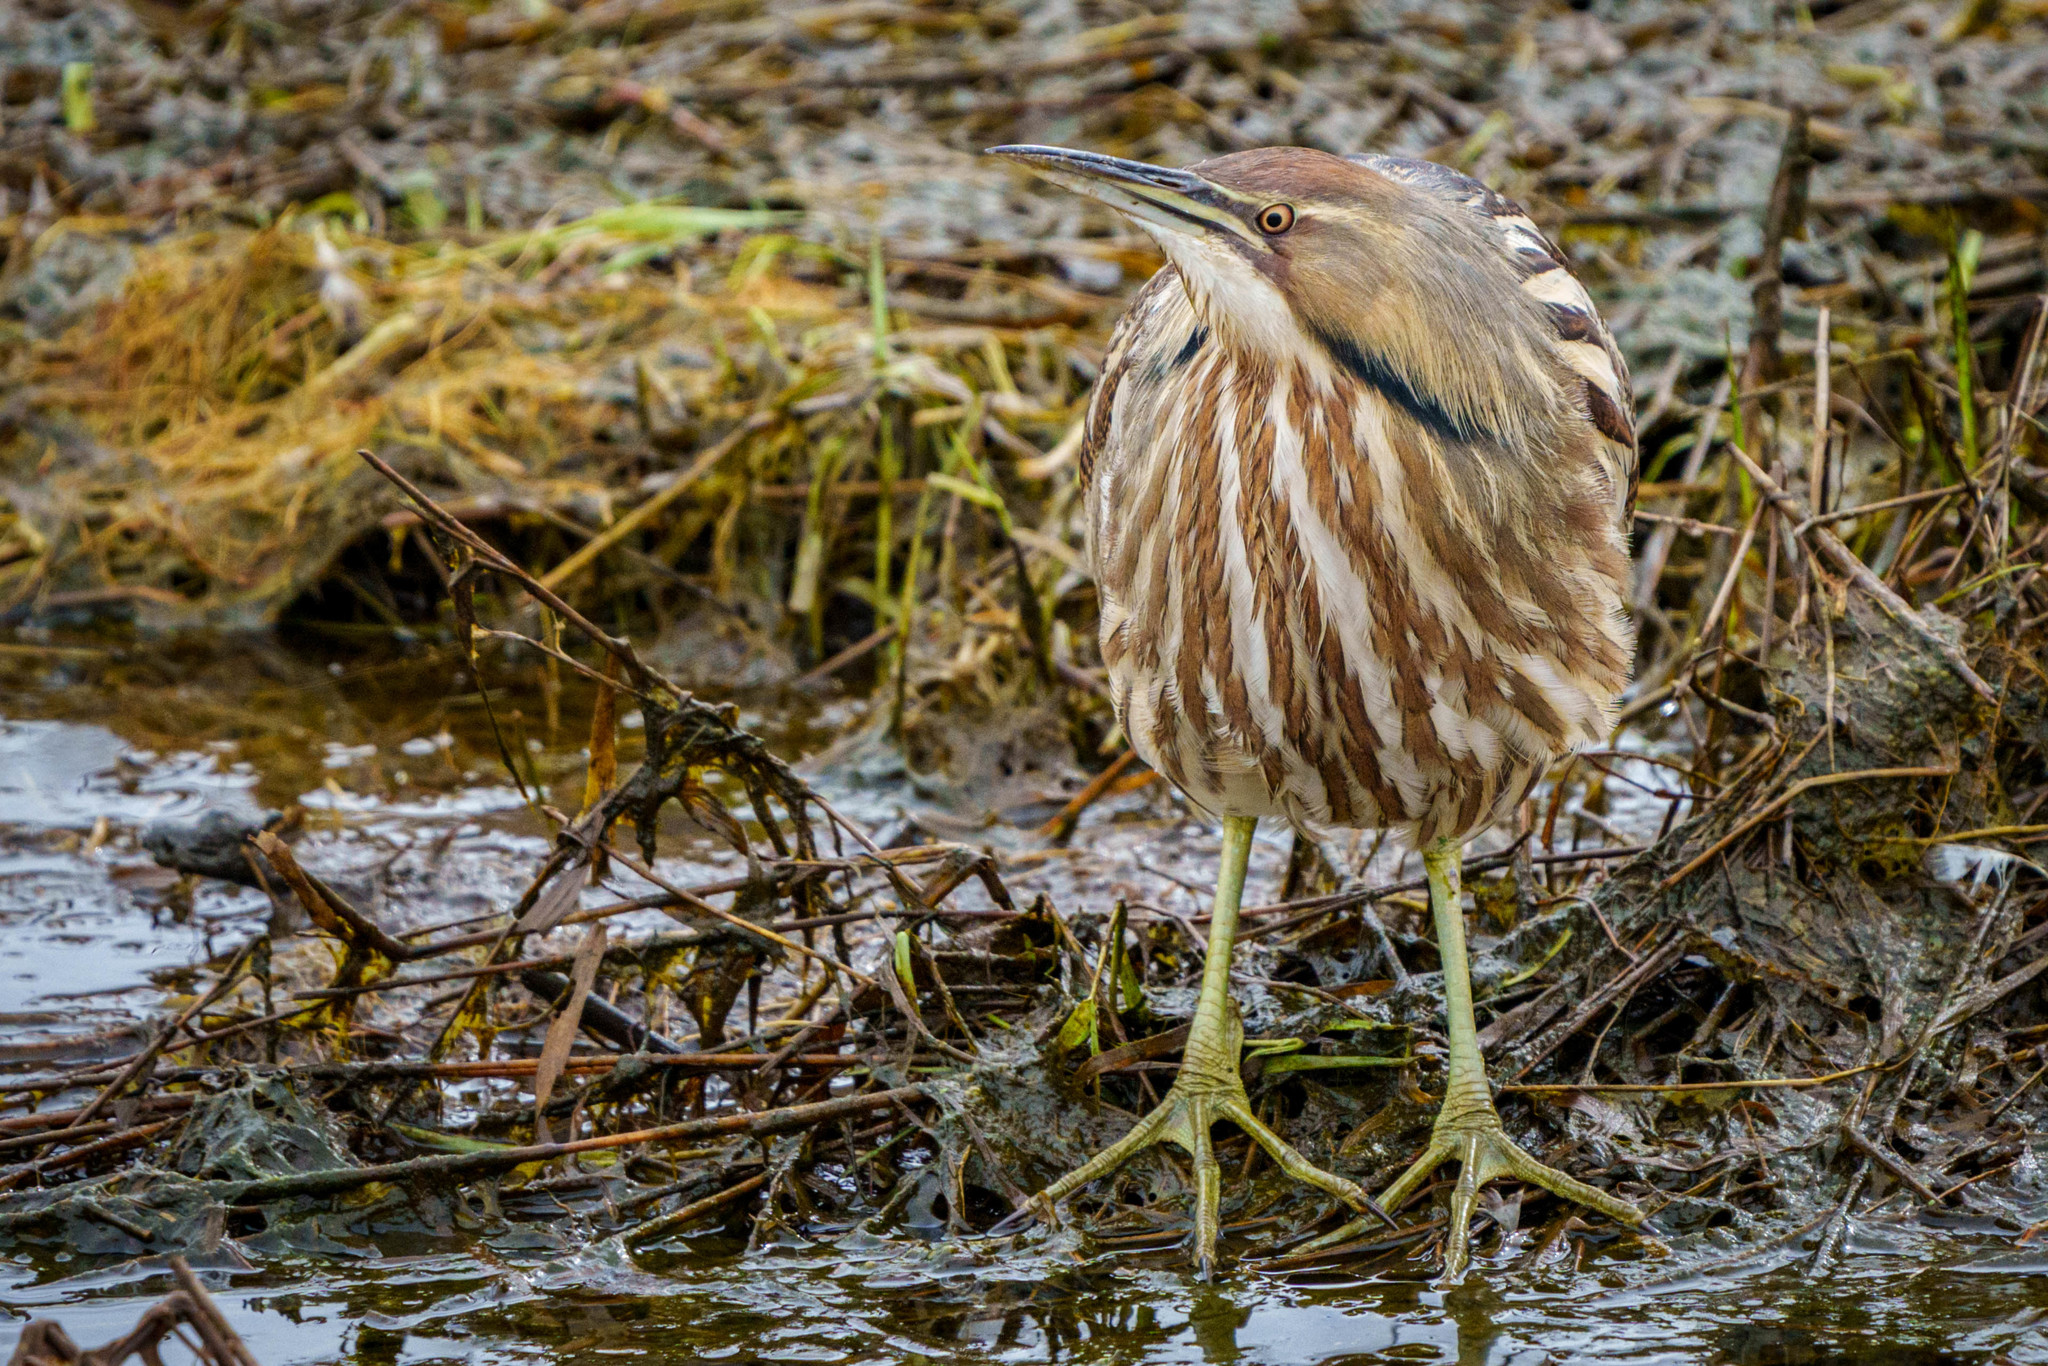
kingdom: Animalia
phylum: Chordata
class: Aves
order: Pelecaniformes
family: Ardeidae
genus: Botaurus
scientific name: Botaurus lentiginosus
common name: American bittern
